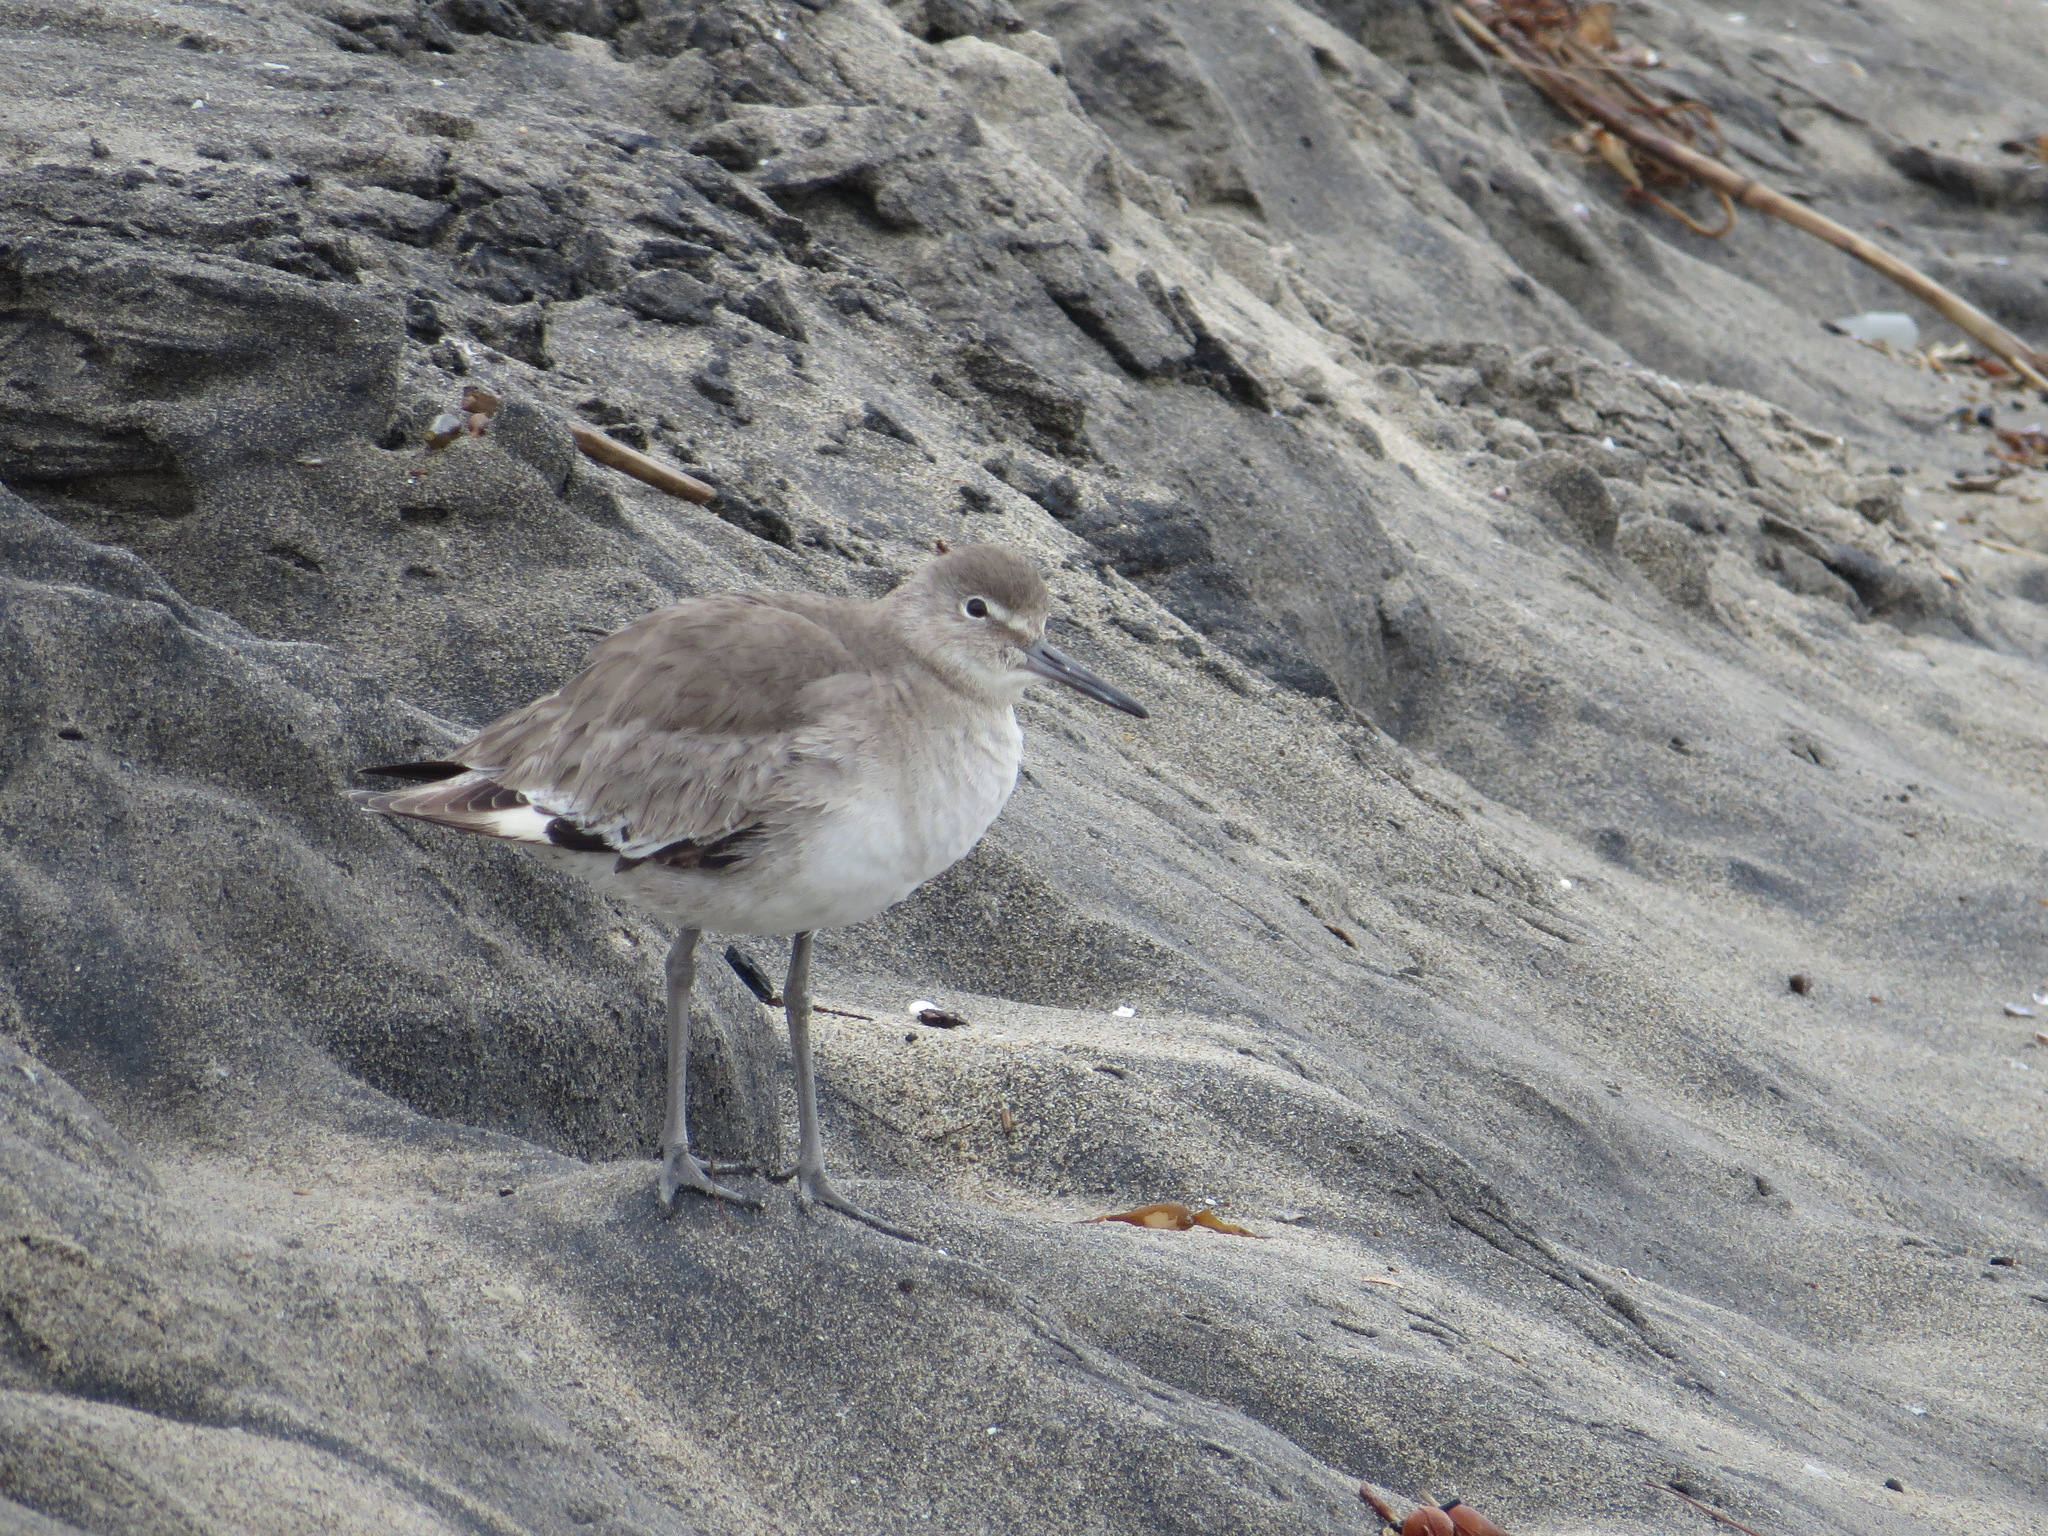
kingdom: Animalia
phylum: Chordata
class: Aves
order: Charadriiformes
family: Scolopacidae
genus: Tringa
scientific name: Tringa semipalmata
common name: Willet
